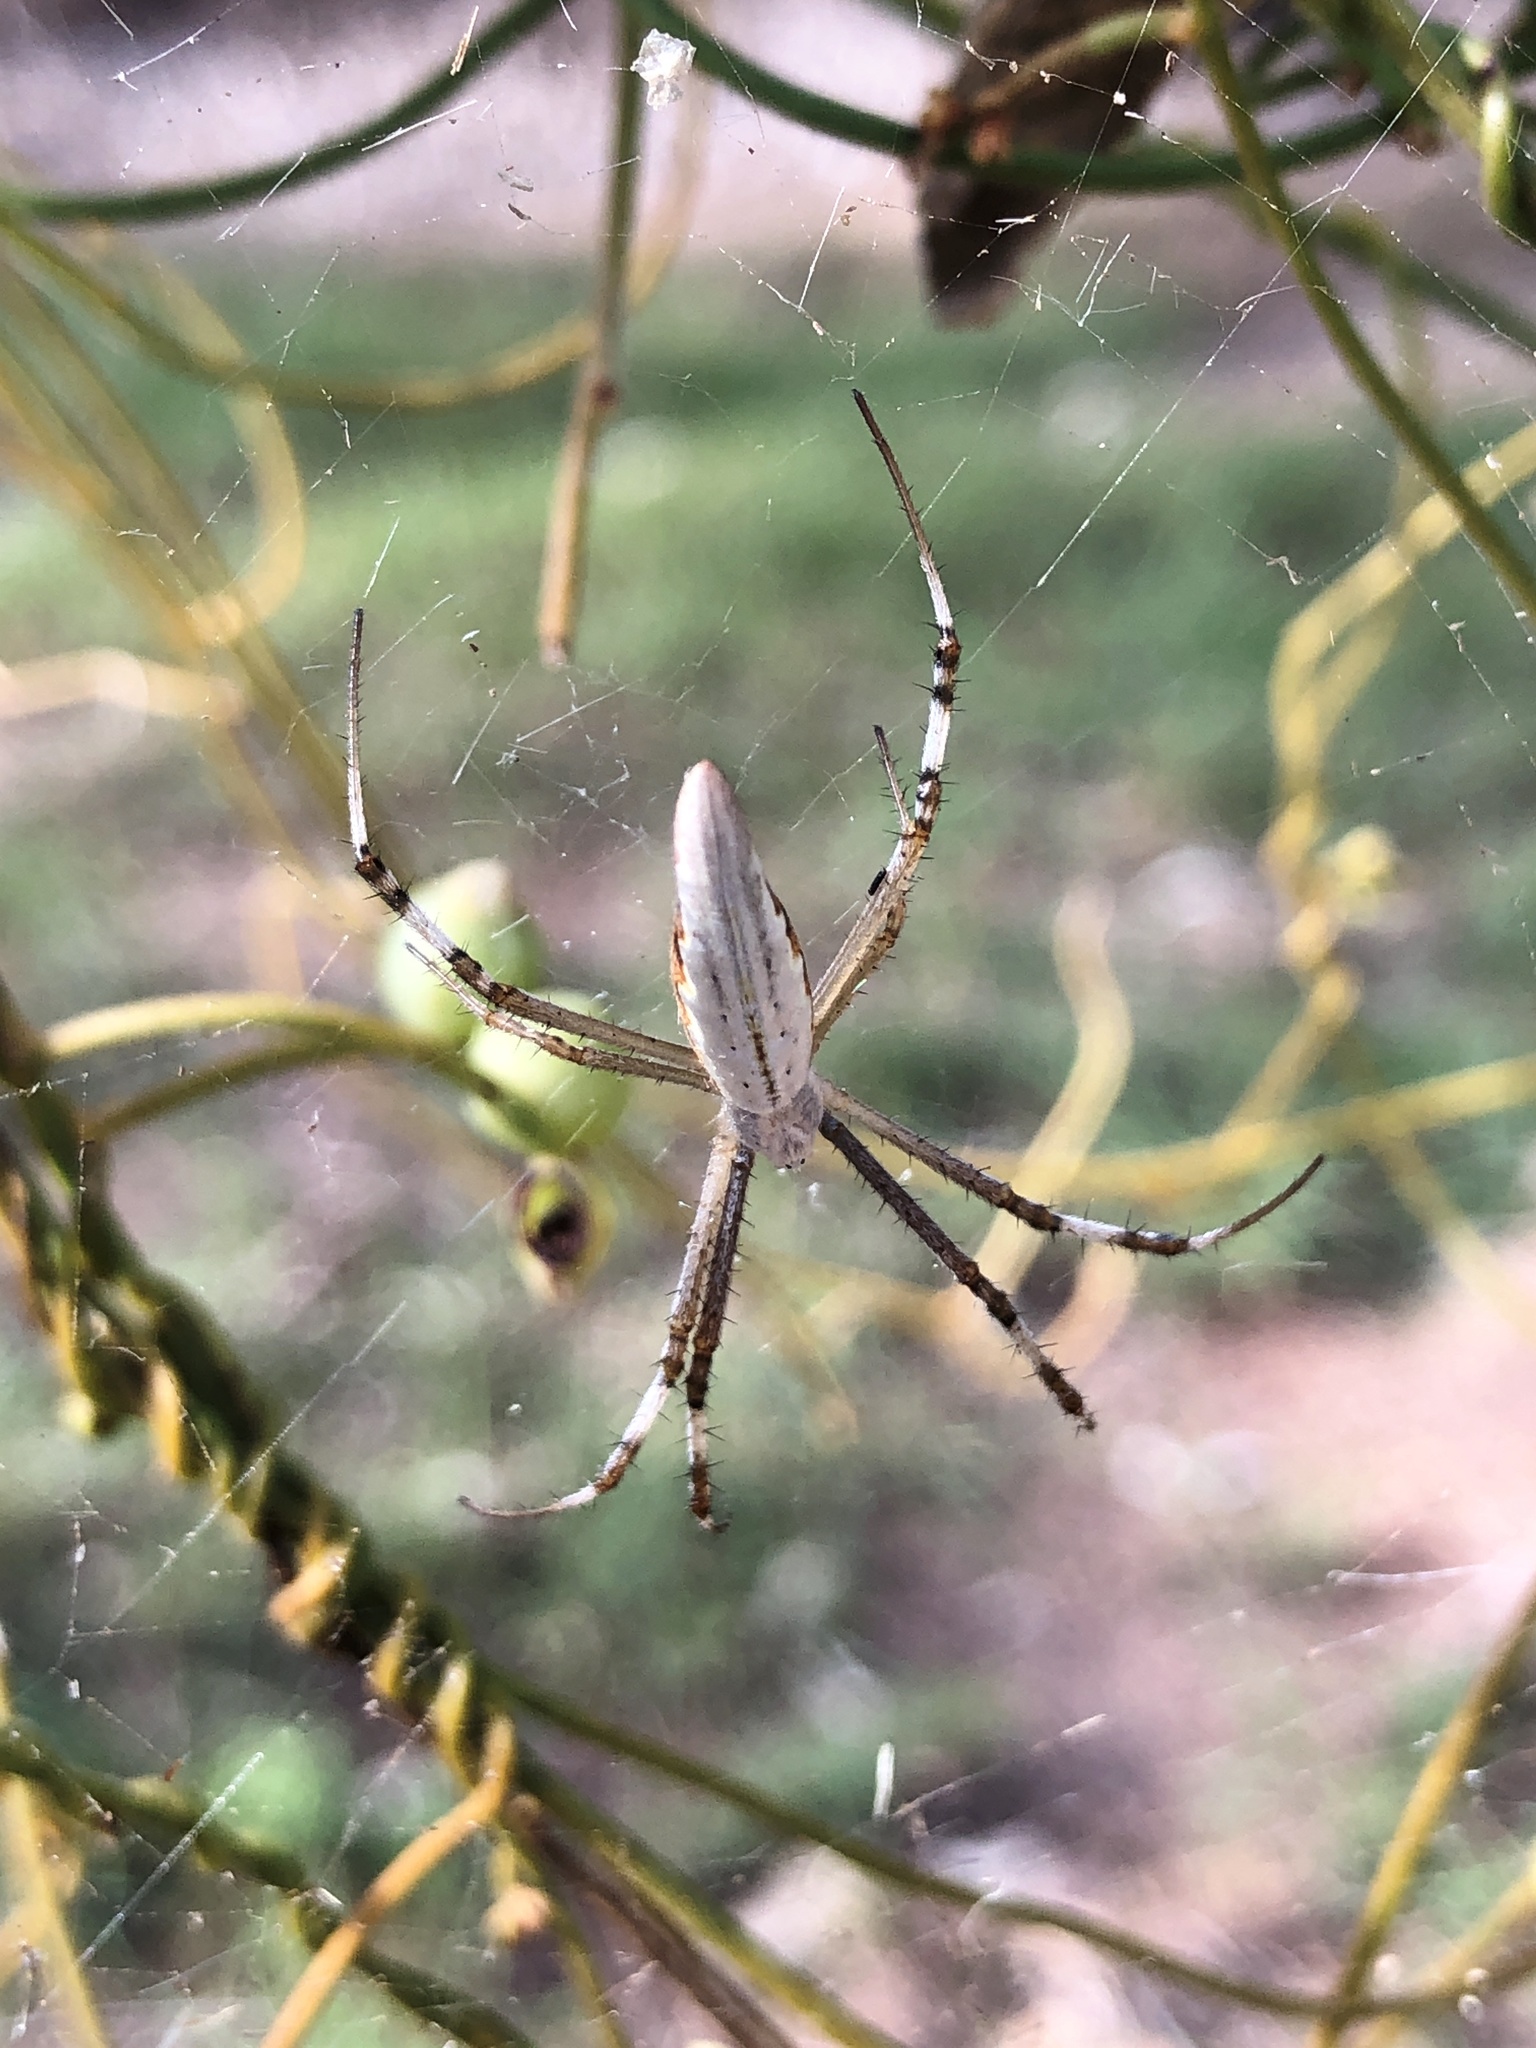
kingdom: Animalia
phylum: Arthropoda
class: Arachnida
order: Araneae
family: Araneidae
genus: Argiope
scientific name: Argiope protensa
